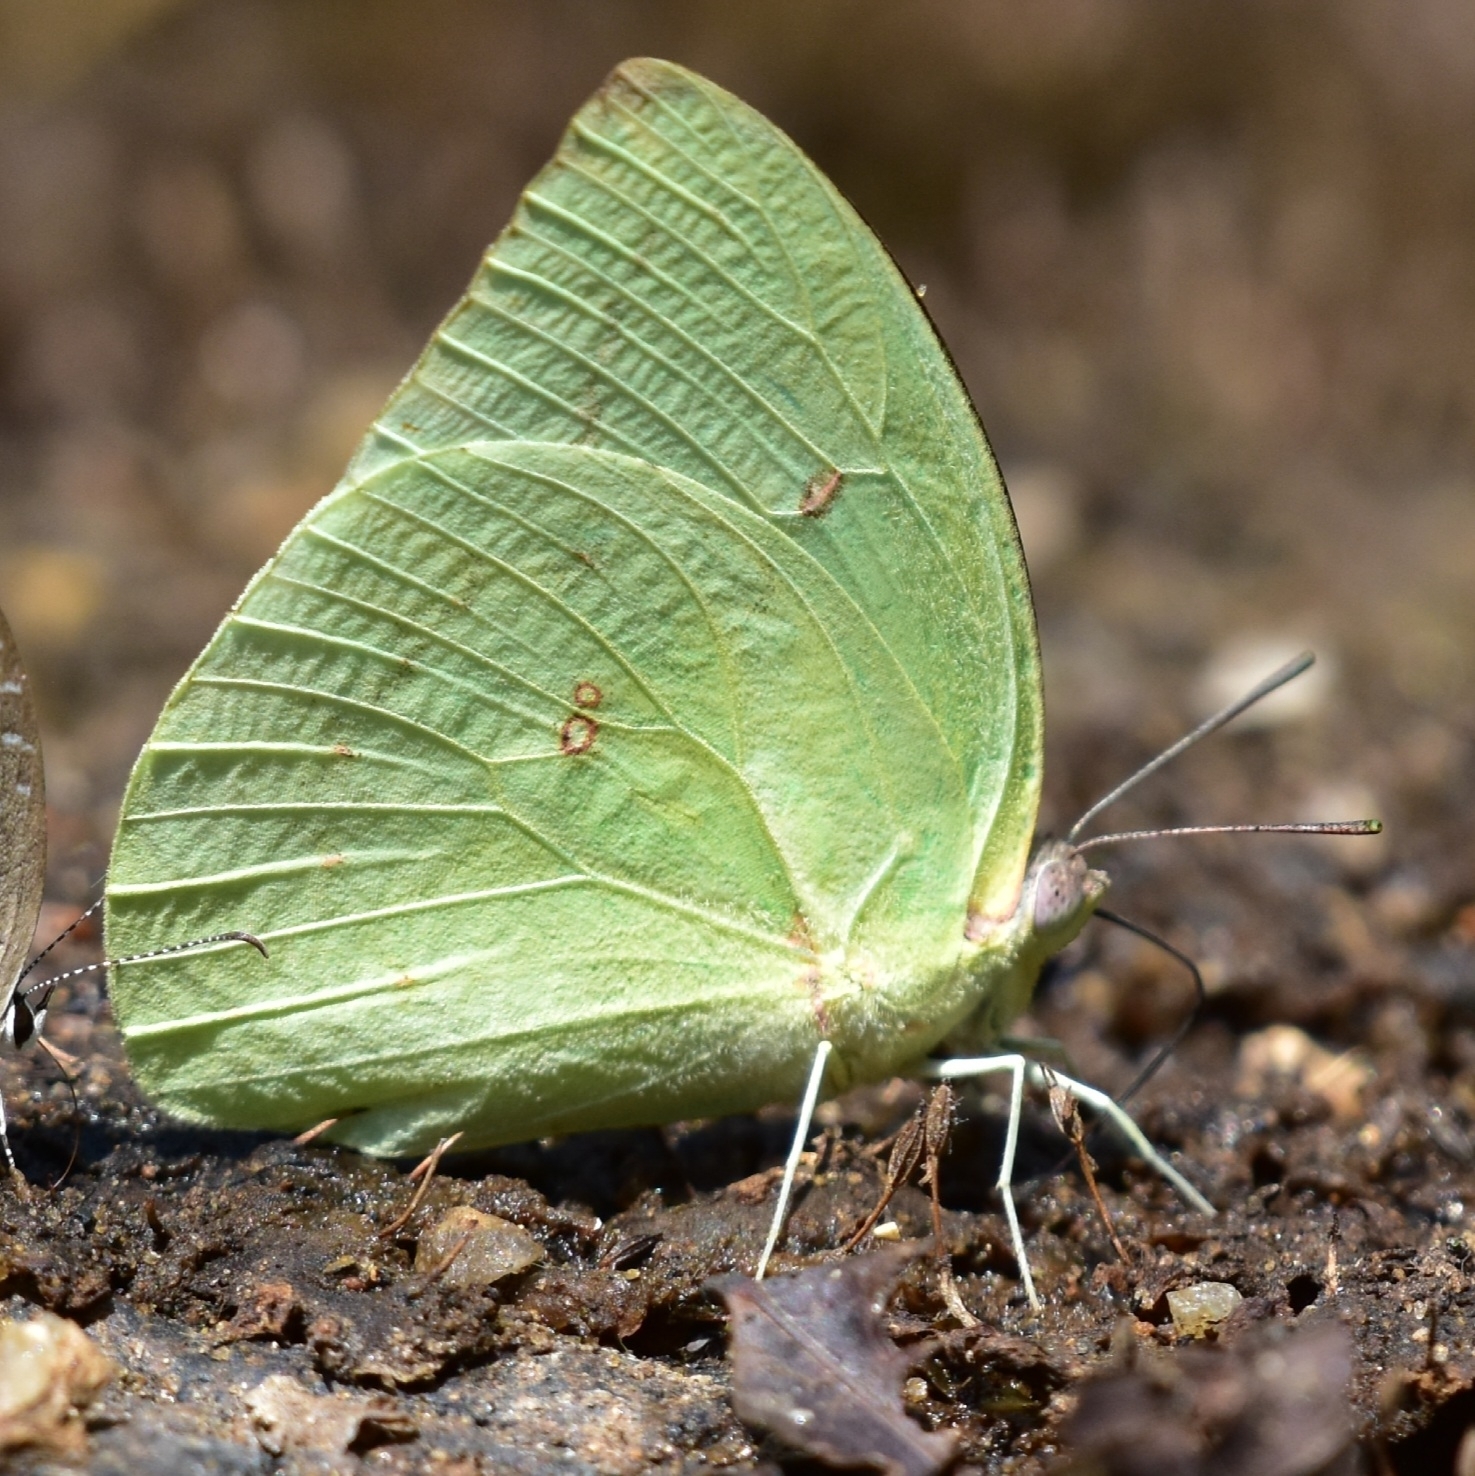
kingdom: Animalia
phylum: Arthropoda
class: Insecta
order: Lepidoptera
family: Pieridae
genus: Catopsilia
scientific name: Catopsilia pomona
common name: Common emigrant
